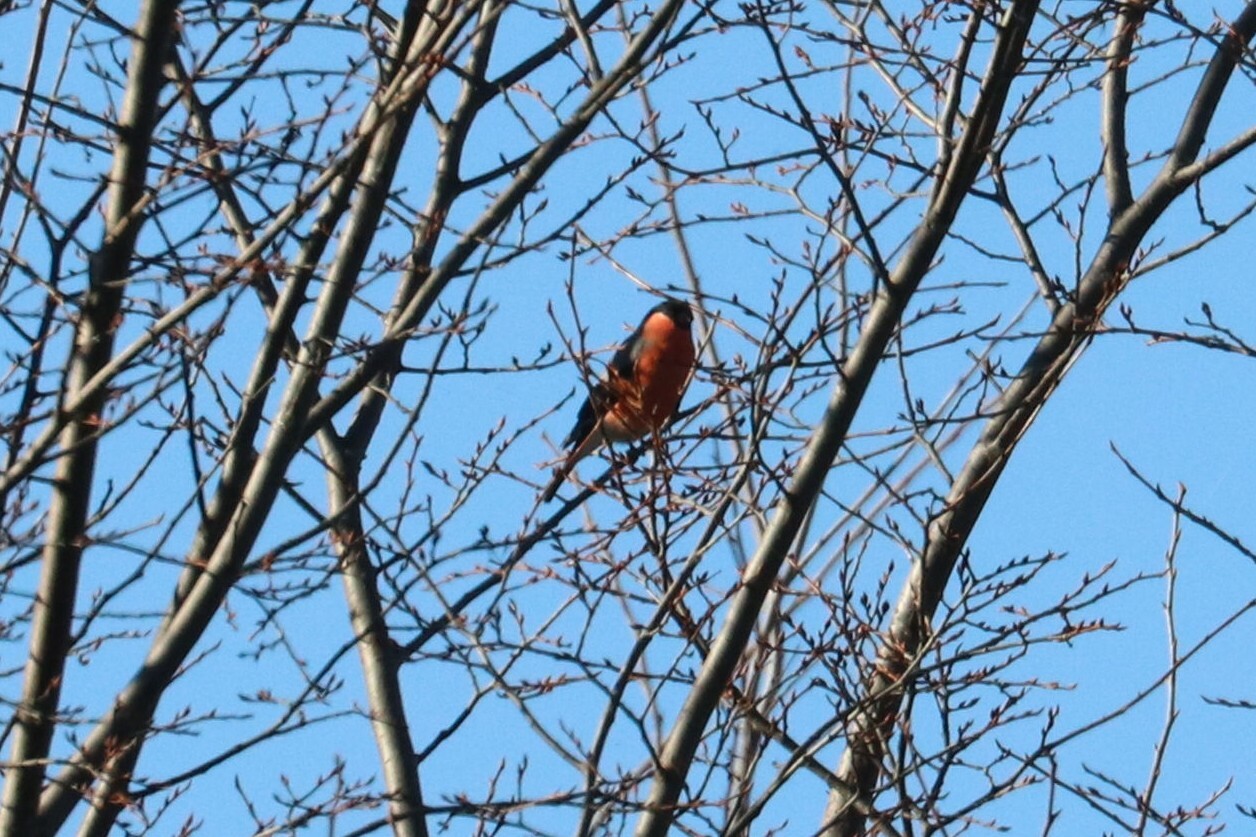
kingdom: Animalia
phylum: Chordata
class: Aves
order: Passeriformes
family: Fringillidae
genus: Pyrrhula
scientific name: Pyrrhula pyrrhula
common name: Eurasian bullfinch
